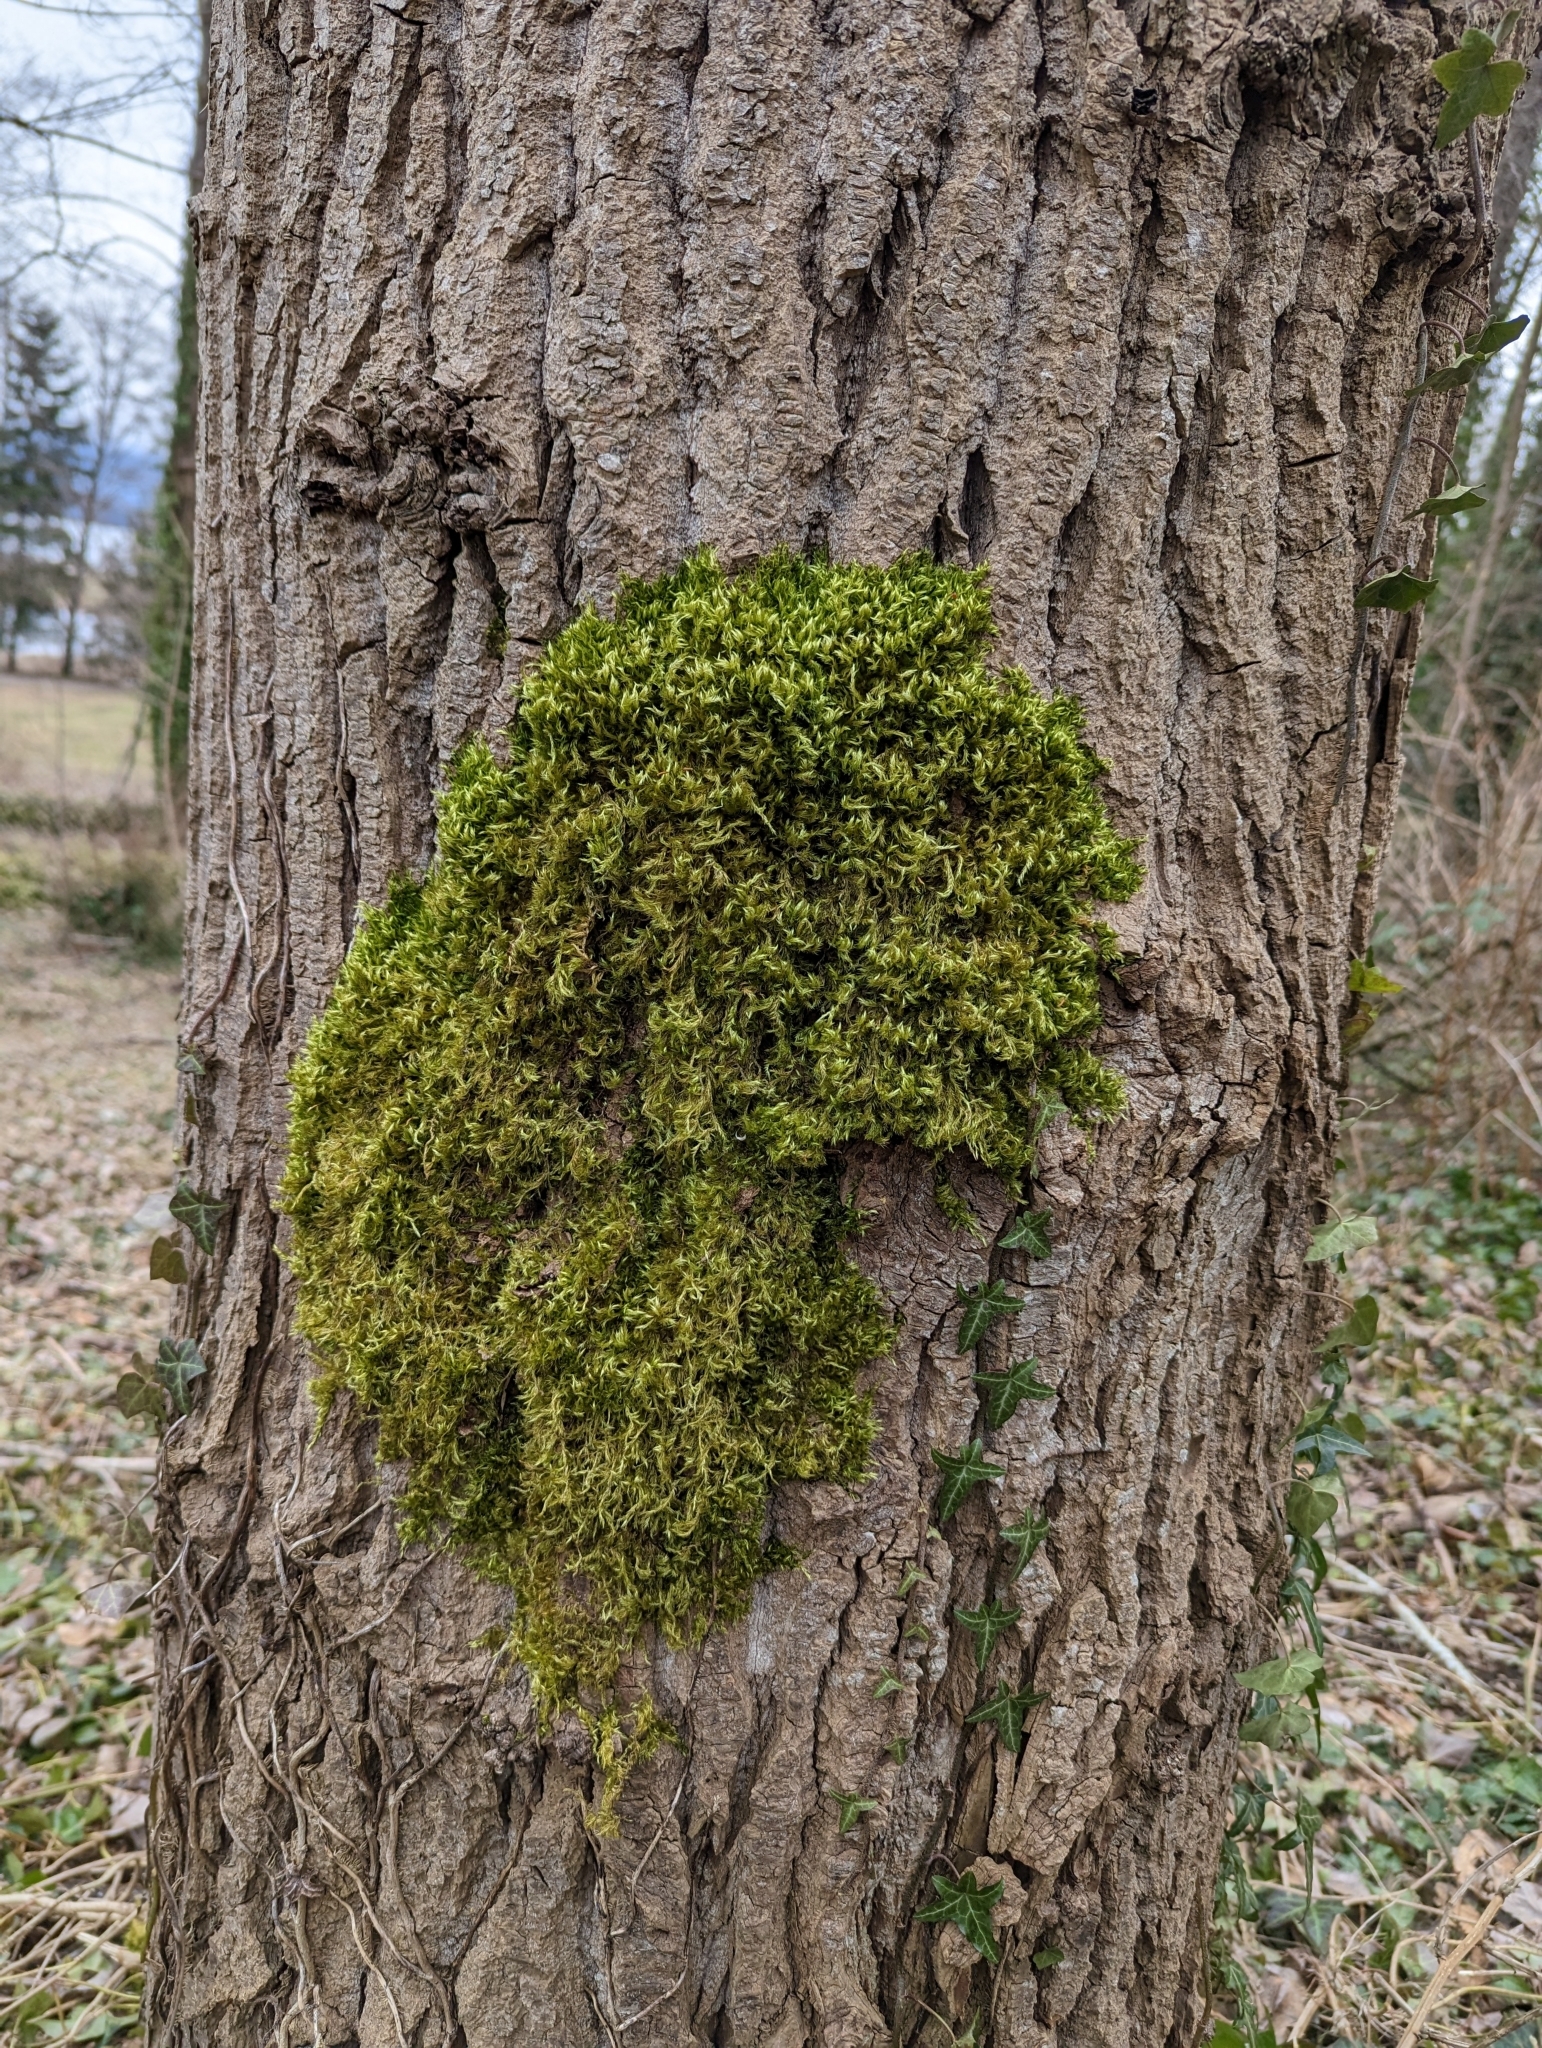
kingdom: Plantae
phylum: Bryophyta
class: Bryopsida
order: Hypnales
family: Brachytheciaceae
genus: Homalothecium
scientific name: Homalothecium fulgescens
